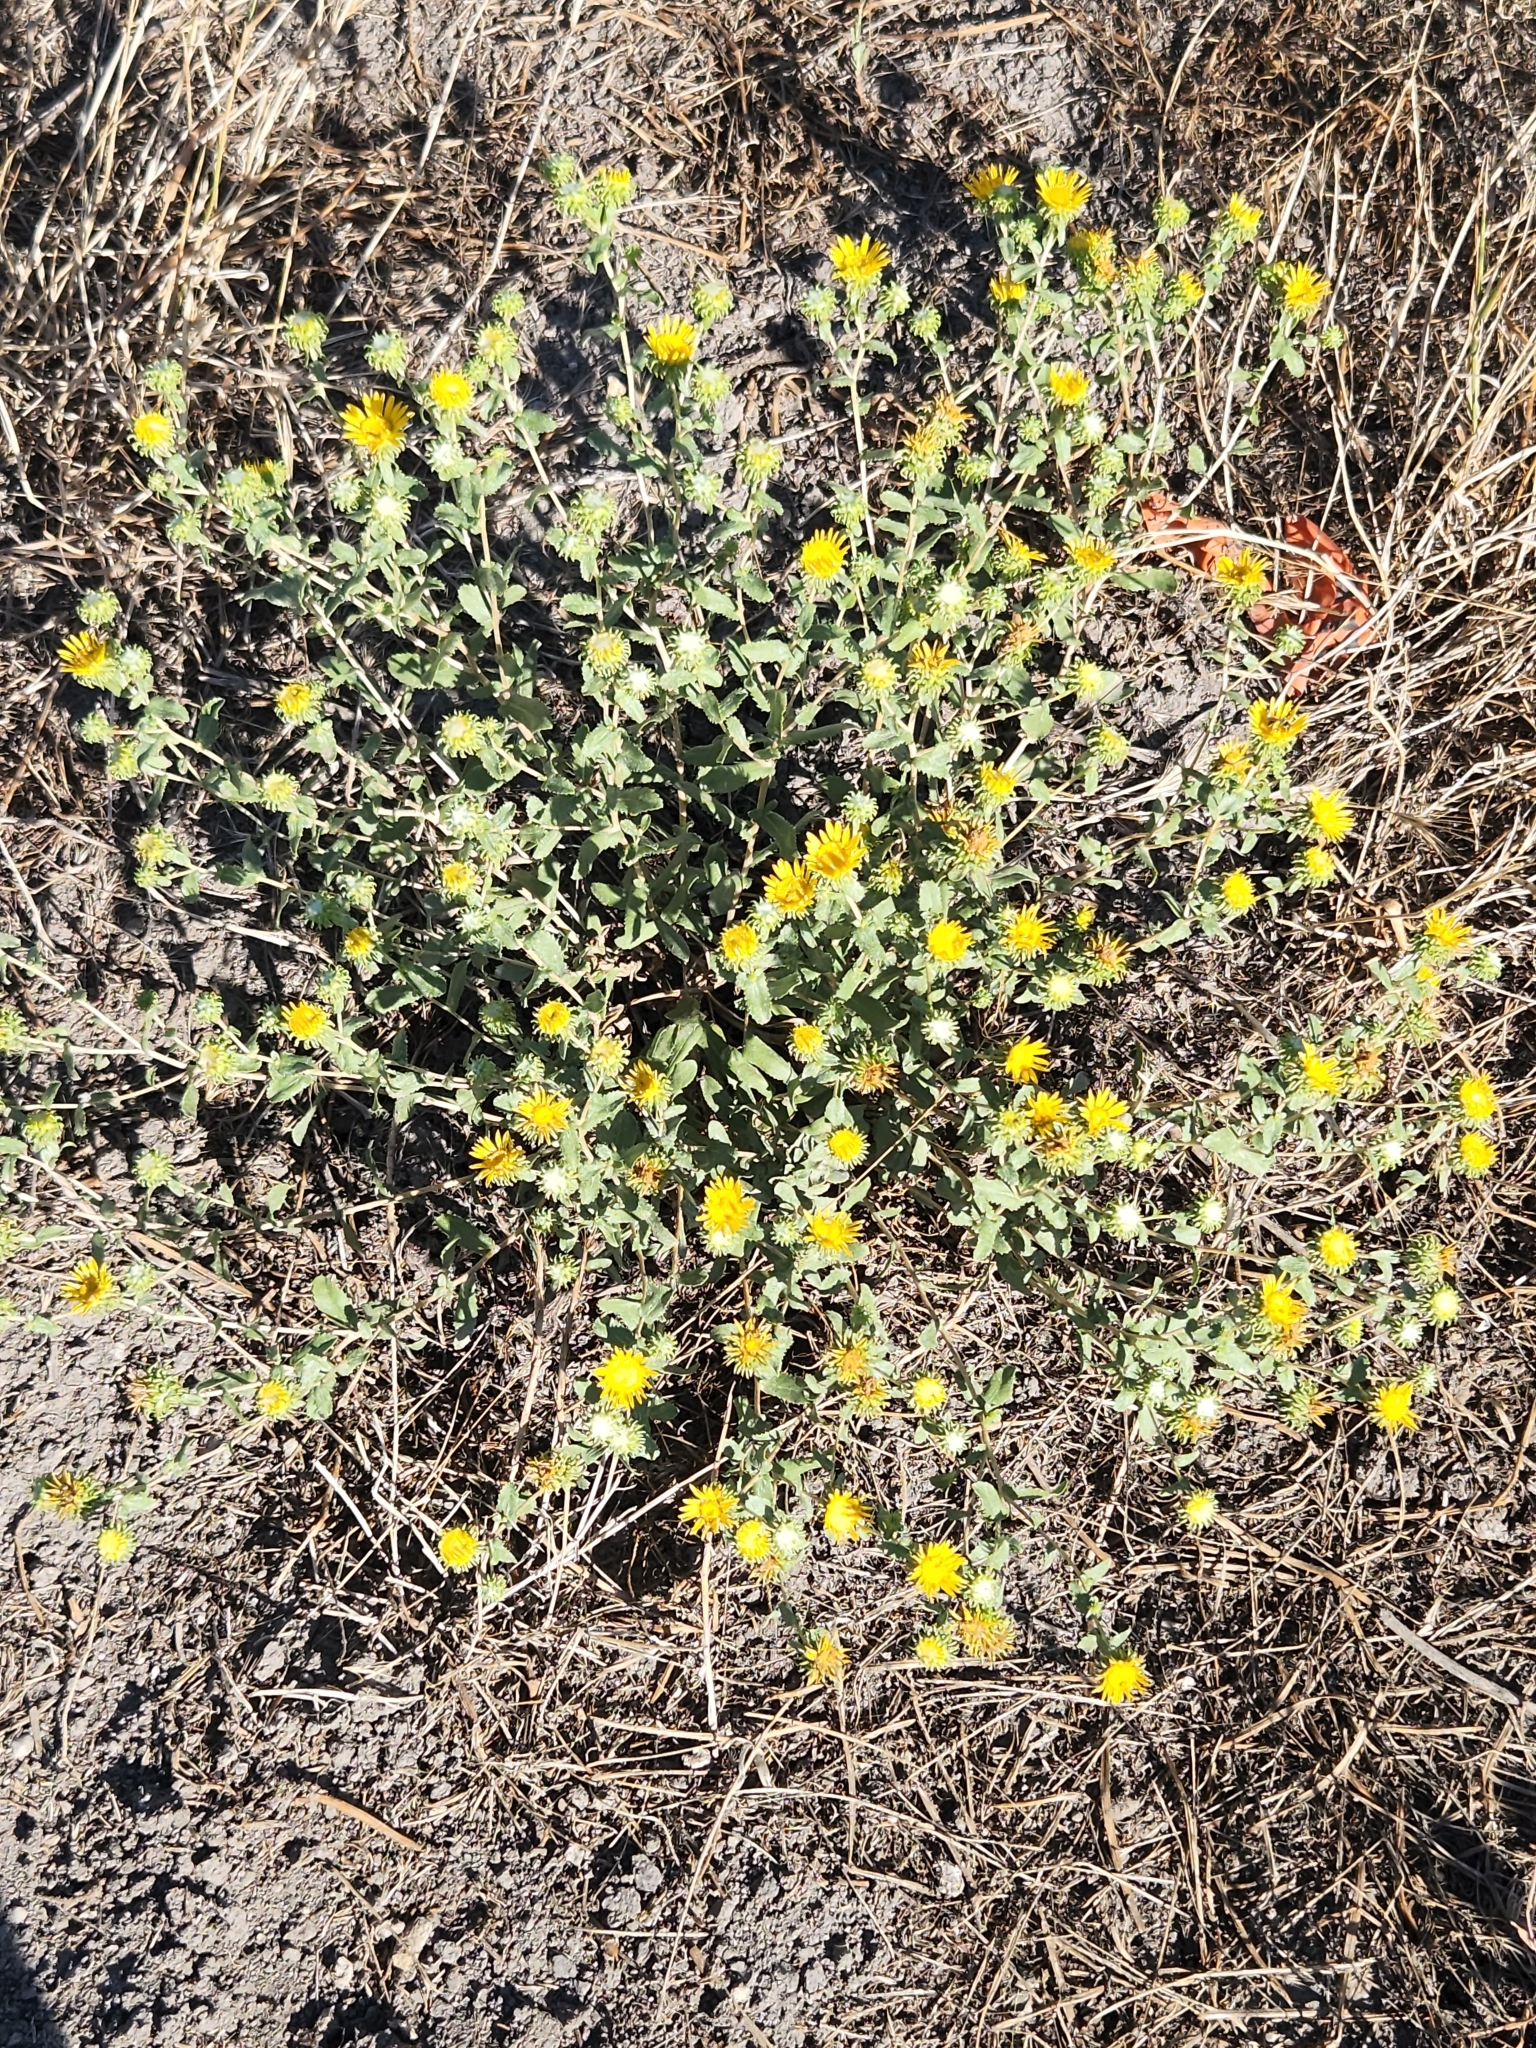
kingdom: Plantae
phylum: Tracheophyta
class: Magnoliopsida
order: Asterales
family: Asteraceae
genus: Grindelia
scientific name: Grindelia squarrosa
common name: Curly-cup gumweed
